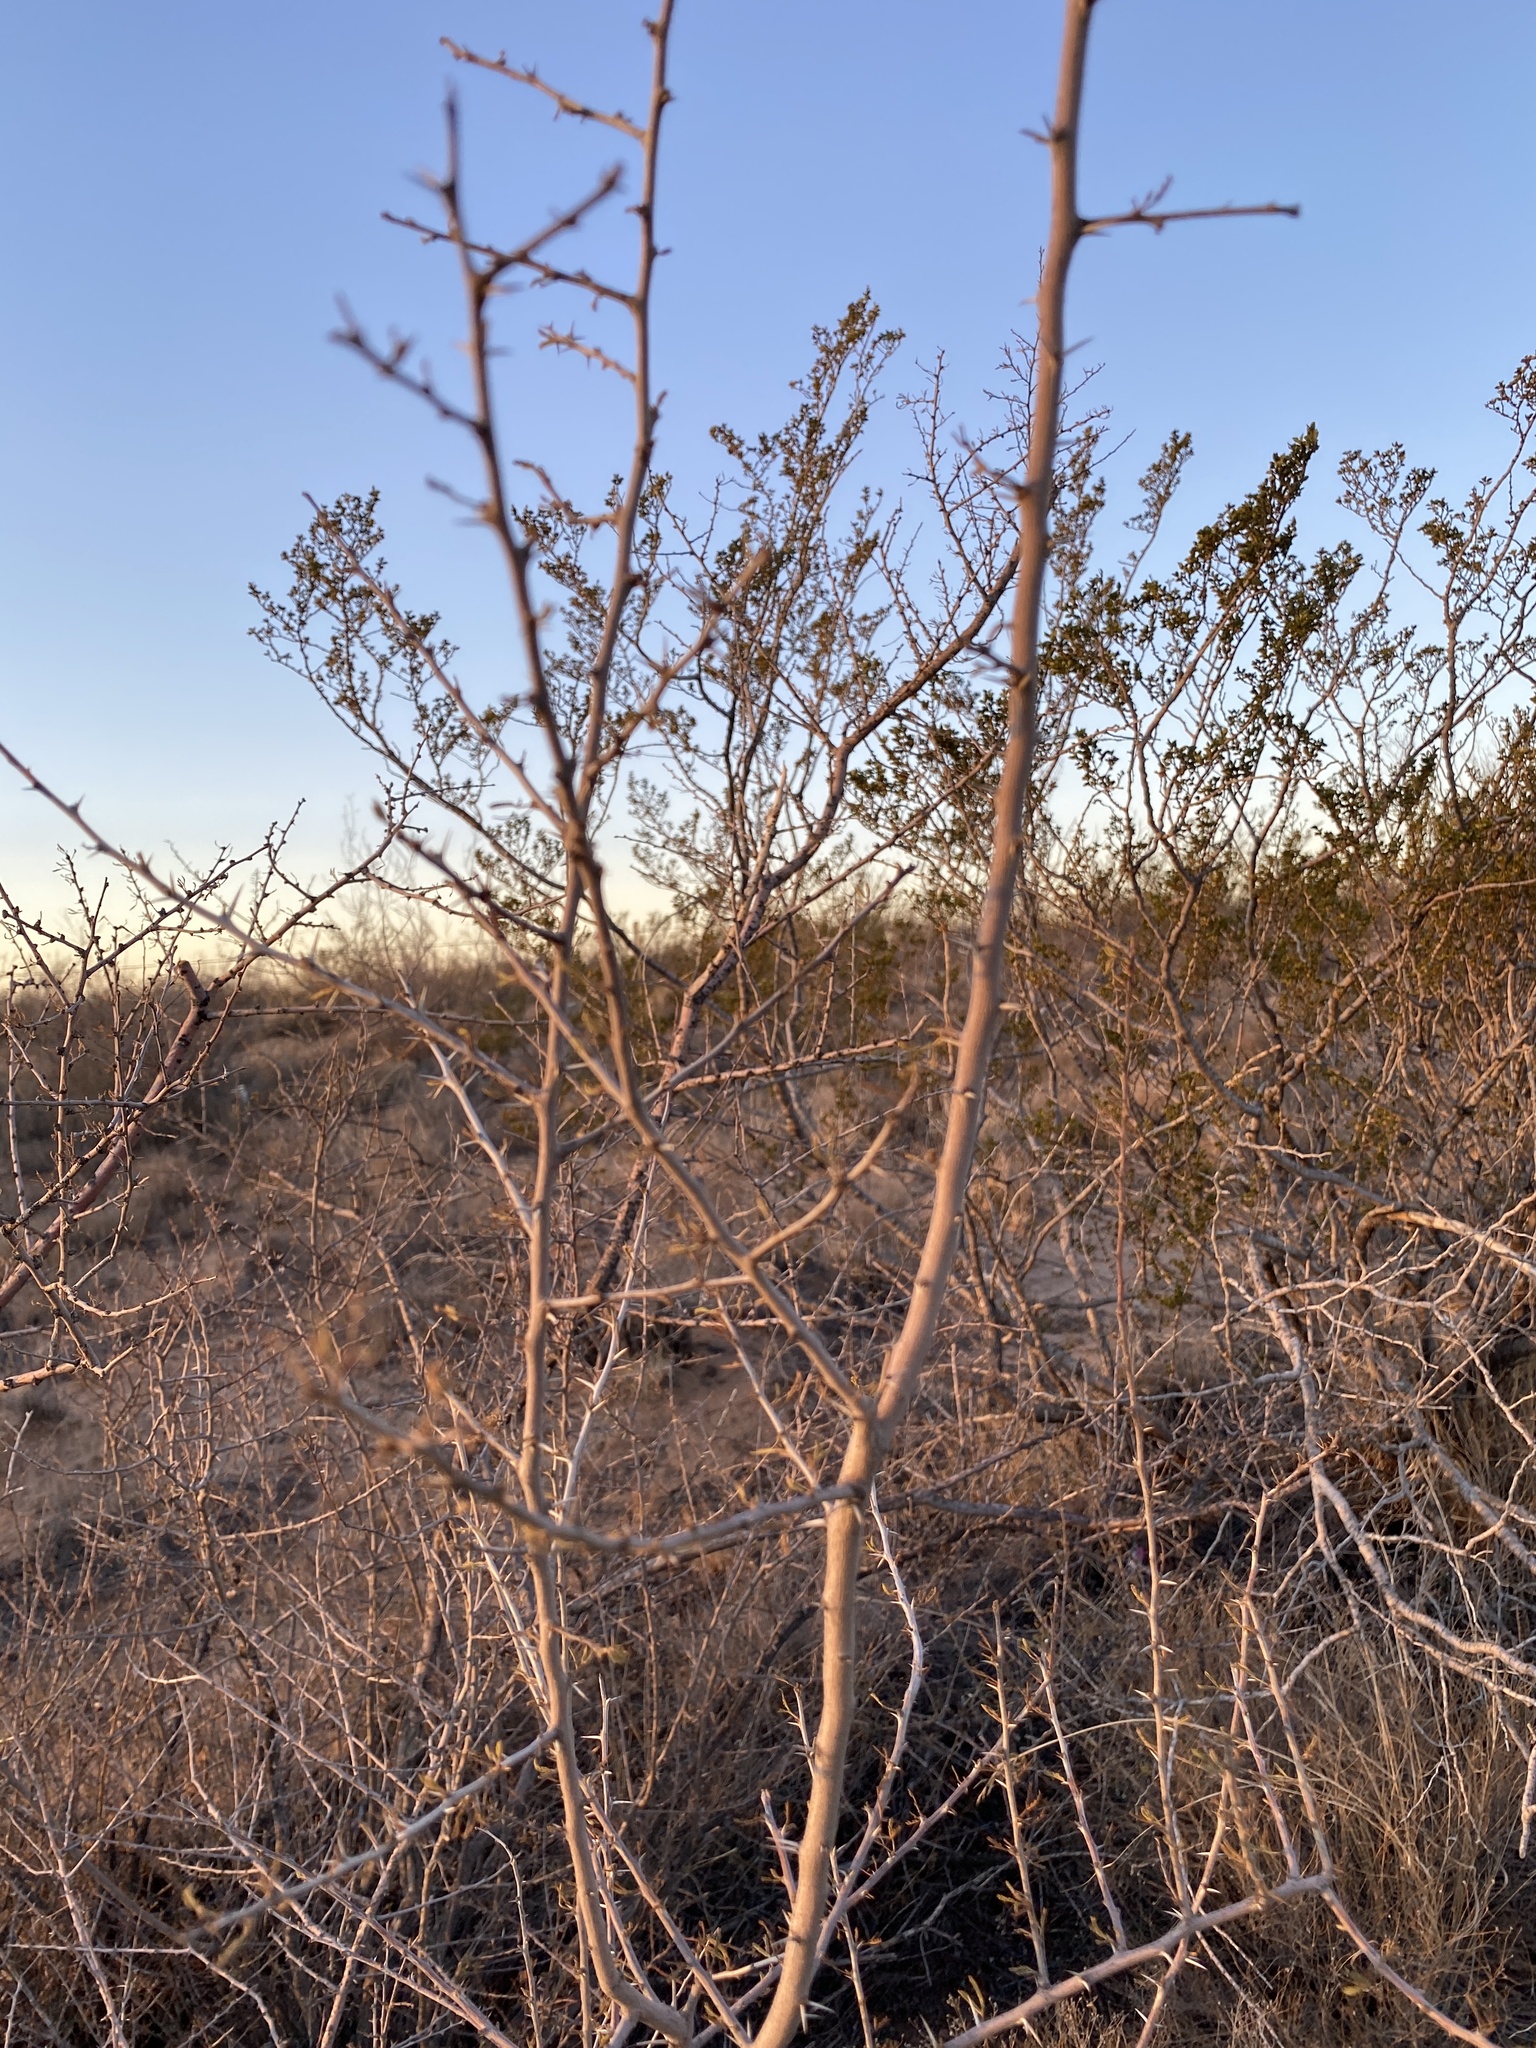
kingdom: Plantae
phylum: Tracheophyta
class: Magnoliopsida
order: Fabales
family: Fabaceae
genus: Vachellia
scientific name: Vachellia vernicosa
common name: Viscid acacia
